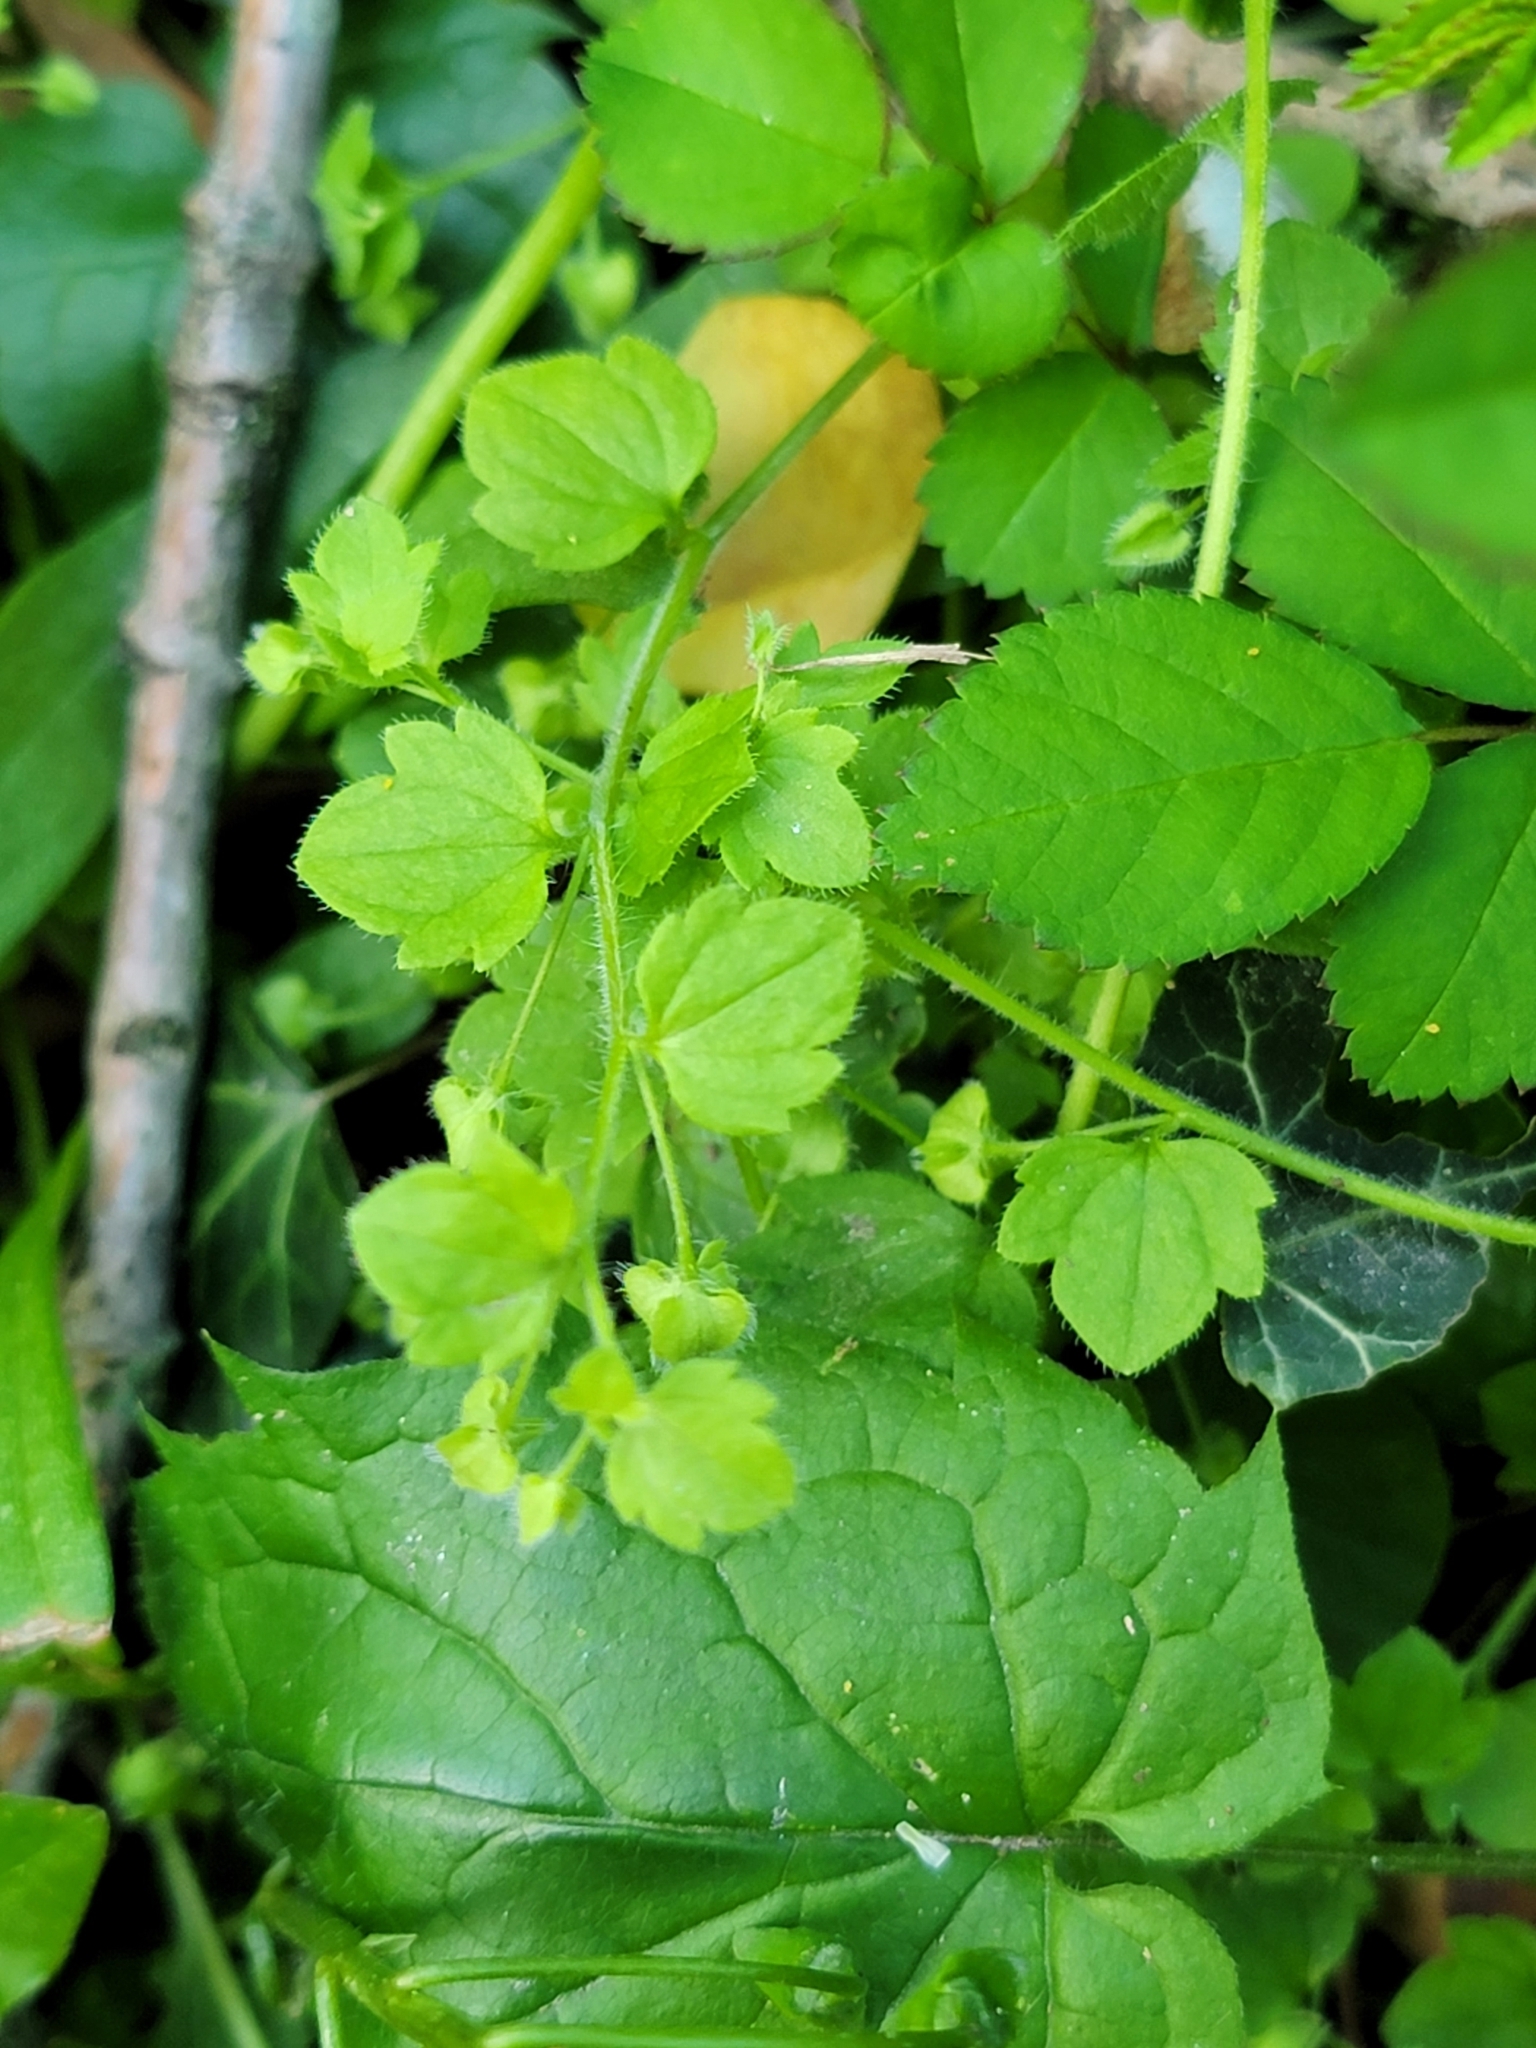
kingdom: Plantae
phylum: Tracheophyta
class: Magnoliopsida
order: Lamiales
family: Plantaginaceae
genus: Veronica
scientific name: Veronica sublobata
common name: False ivy-leaved speedwell
